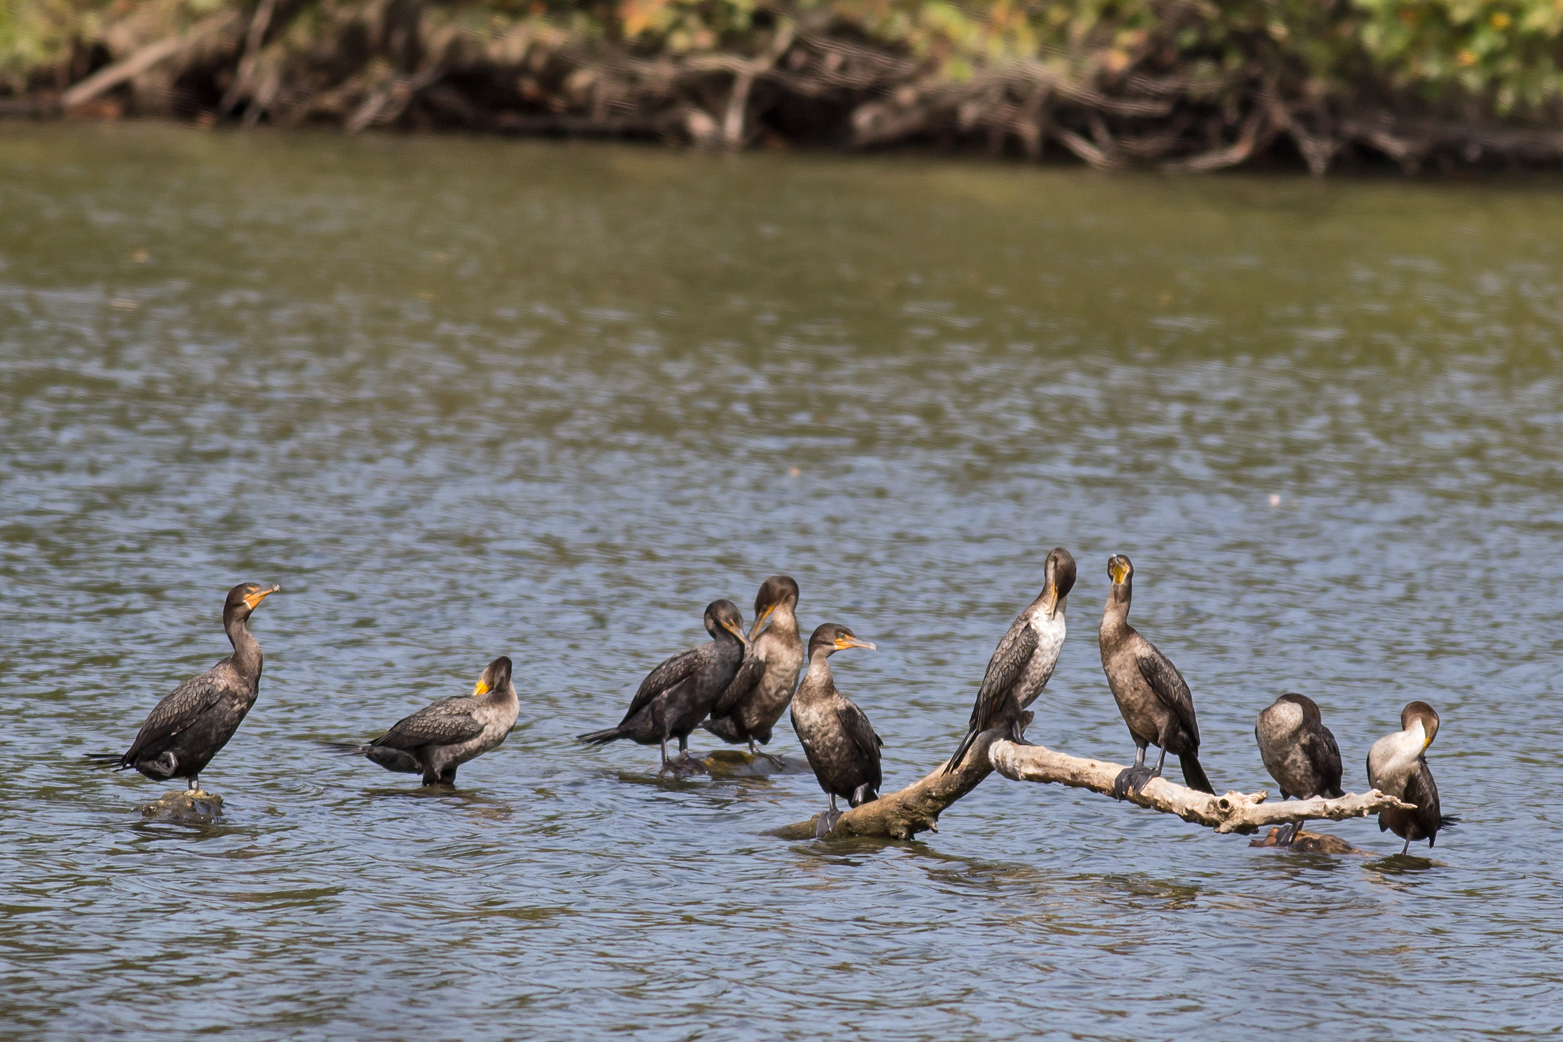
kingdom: Animalia
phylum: Chordata
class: Aves
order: Suliformes
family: Phalacrocoracidae
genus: Phalacrocorax
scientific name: Phalacrocorax auritus
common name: Double-crested cormorant
